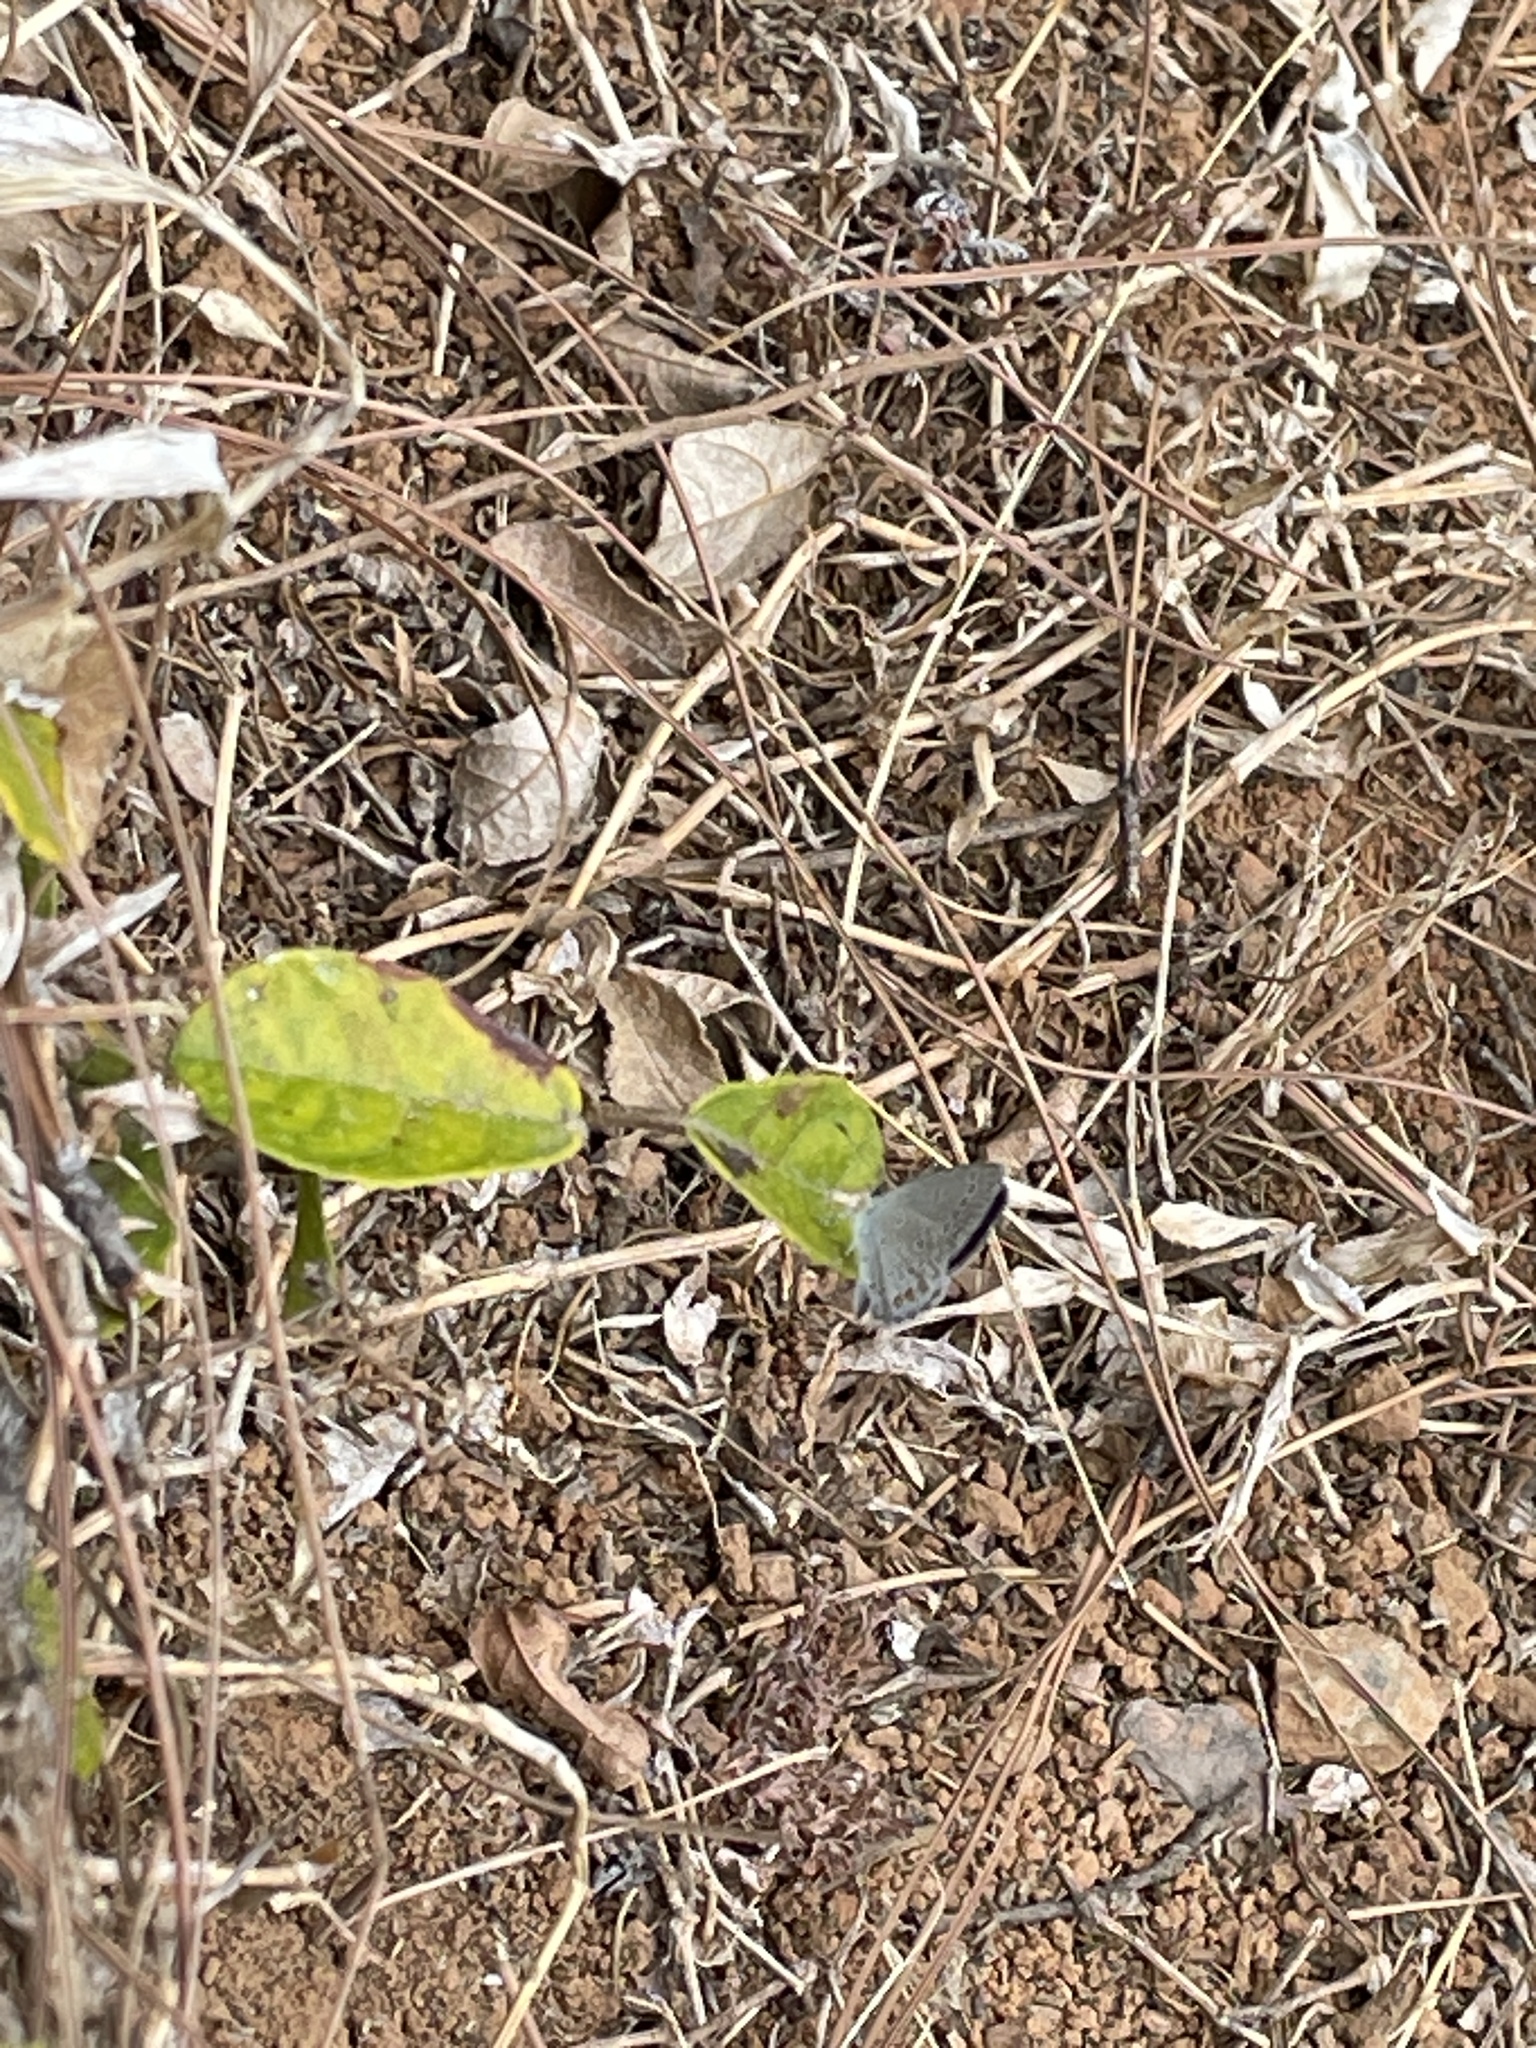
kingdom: Animalia
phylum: Arthropoda
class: Insecta
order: Lepidoptera
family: Lycaenidae
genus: Elkalyce
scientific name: Elkalyce argiades
